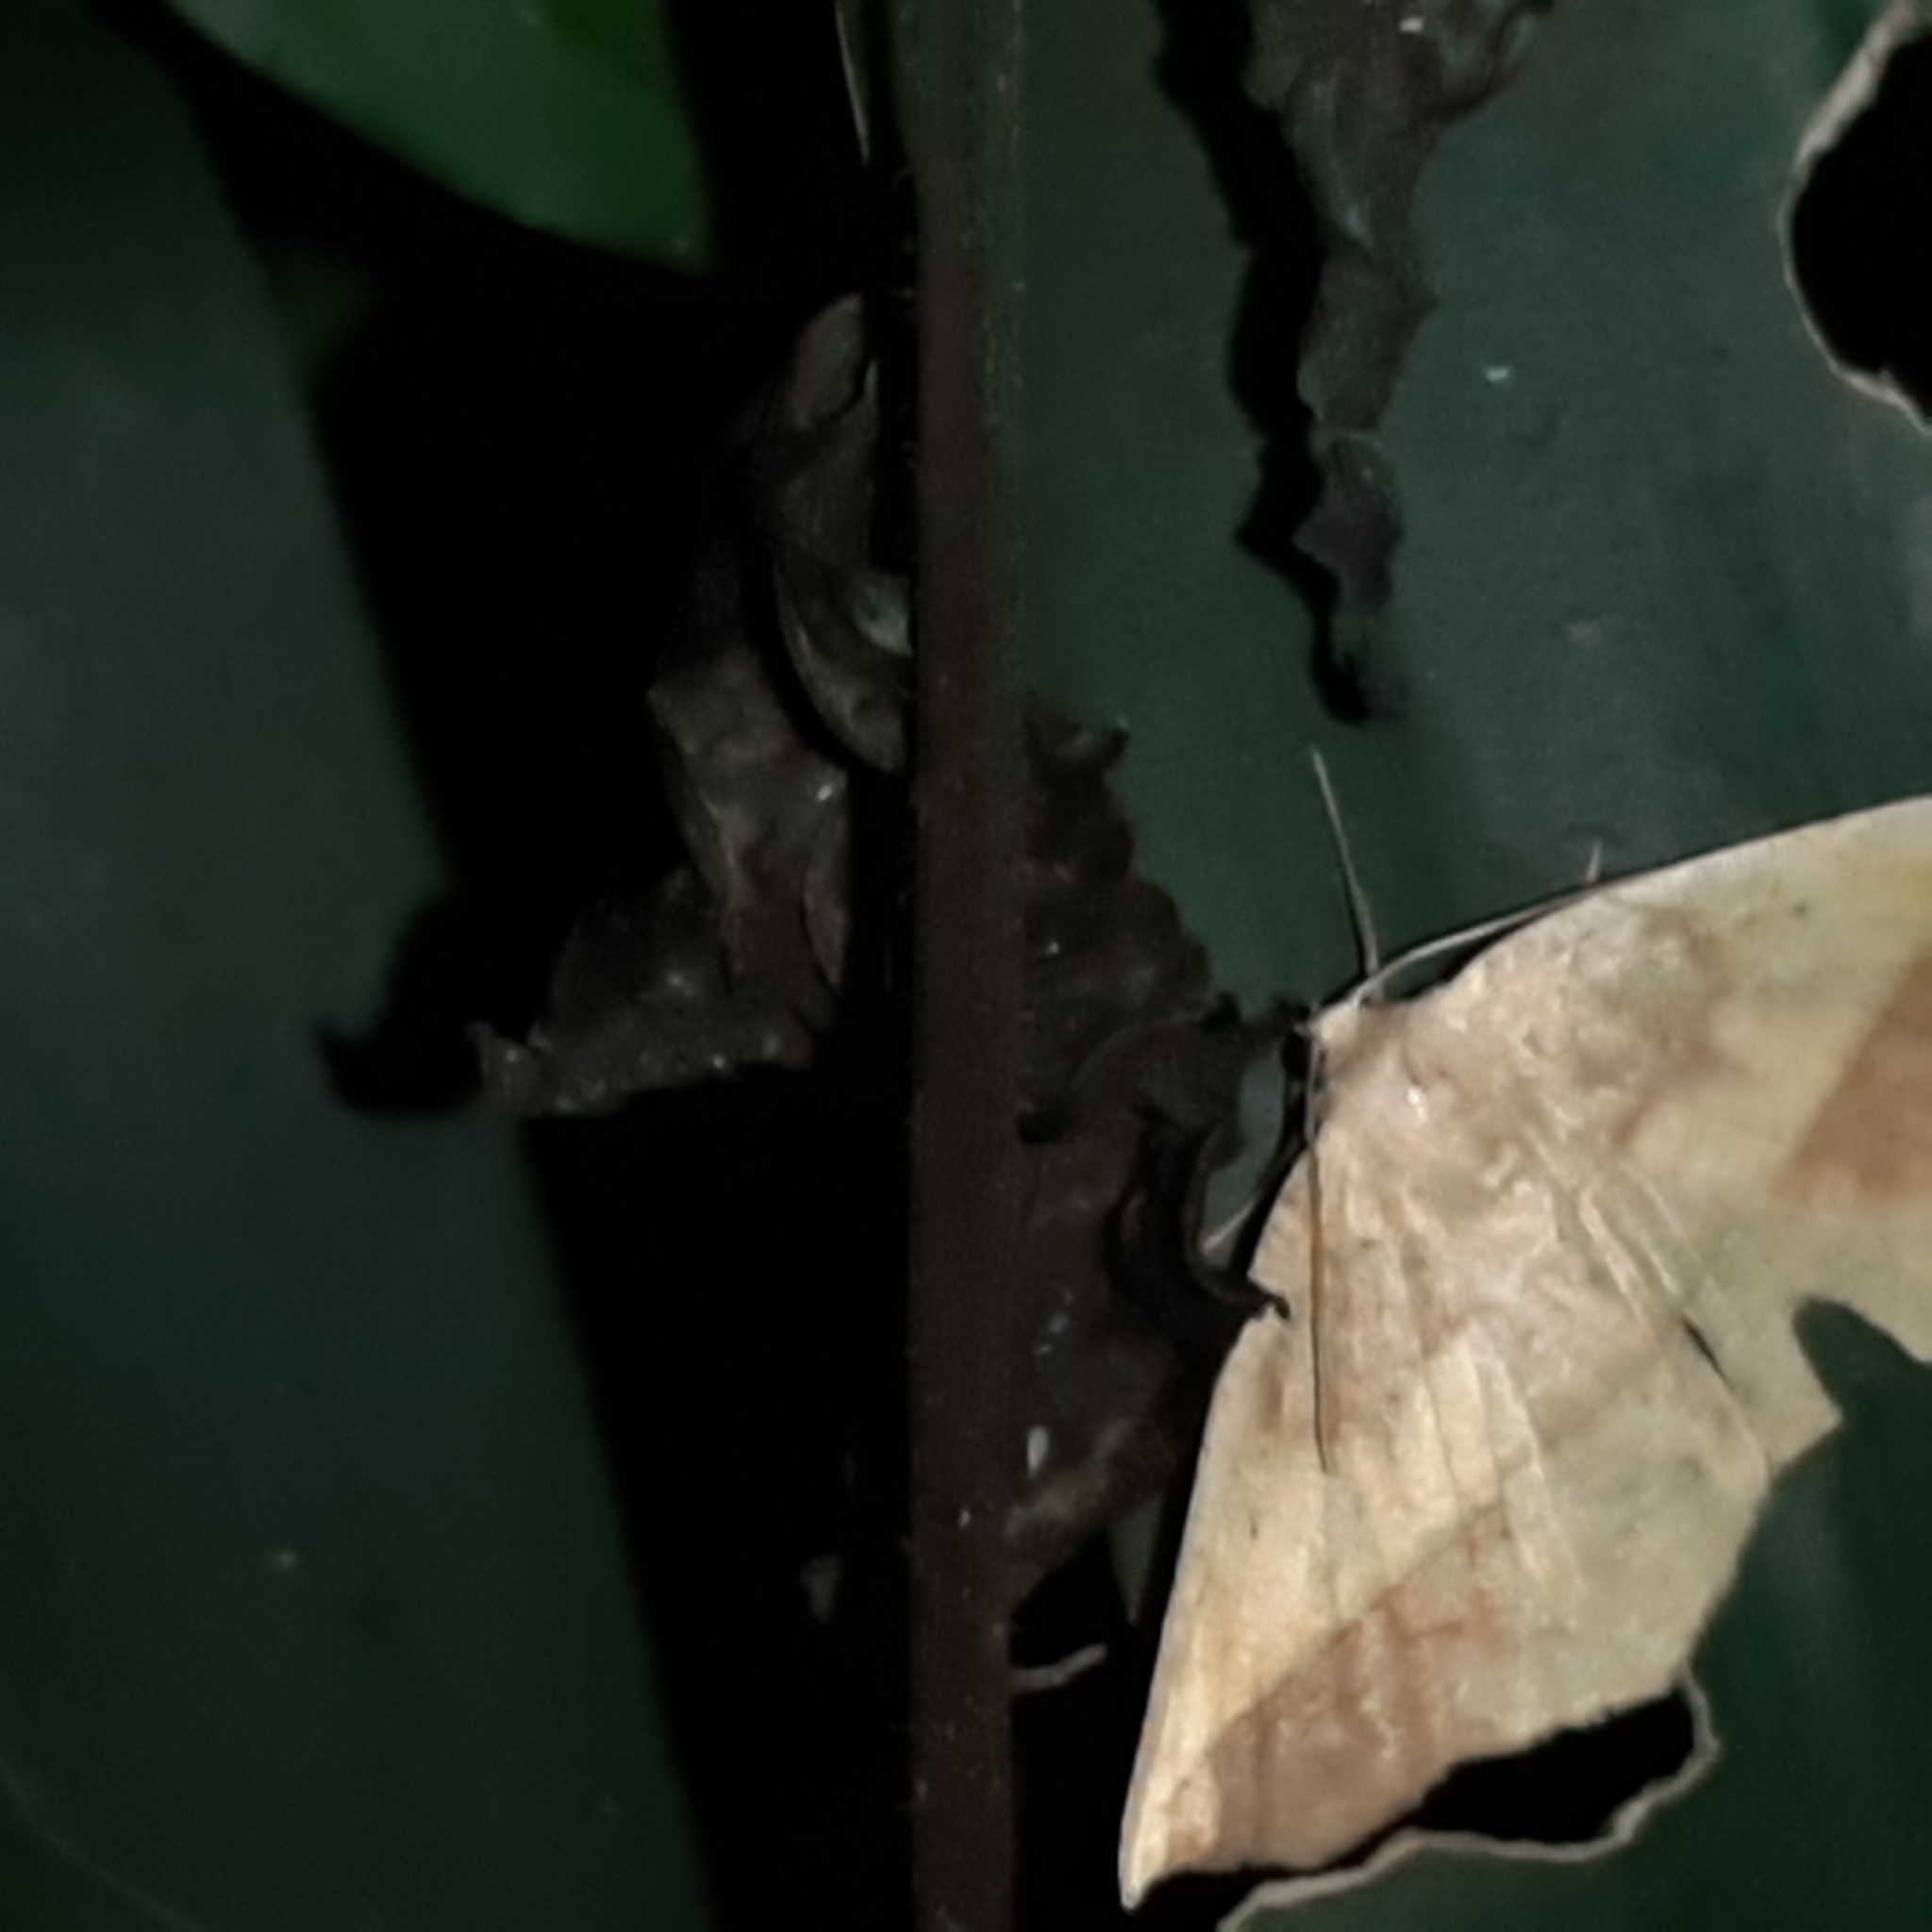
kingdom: Animalia
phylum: Arthropoda
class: Insecta
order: Lepidoptera
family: Geometridae
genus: Eusarca
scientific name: Eusarca fundaria
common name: Dark-edged eusarca moth
